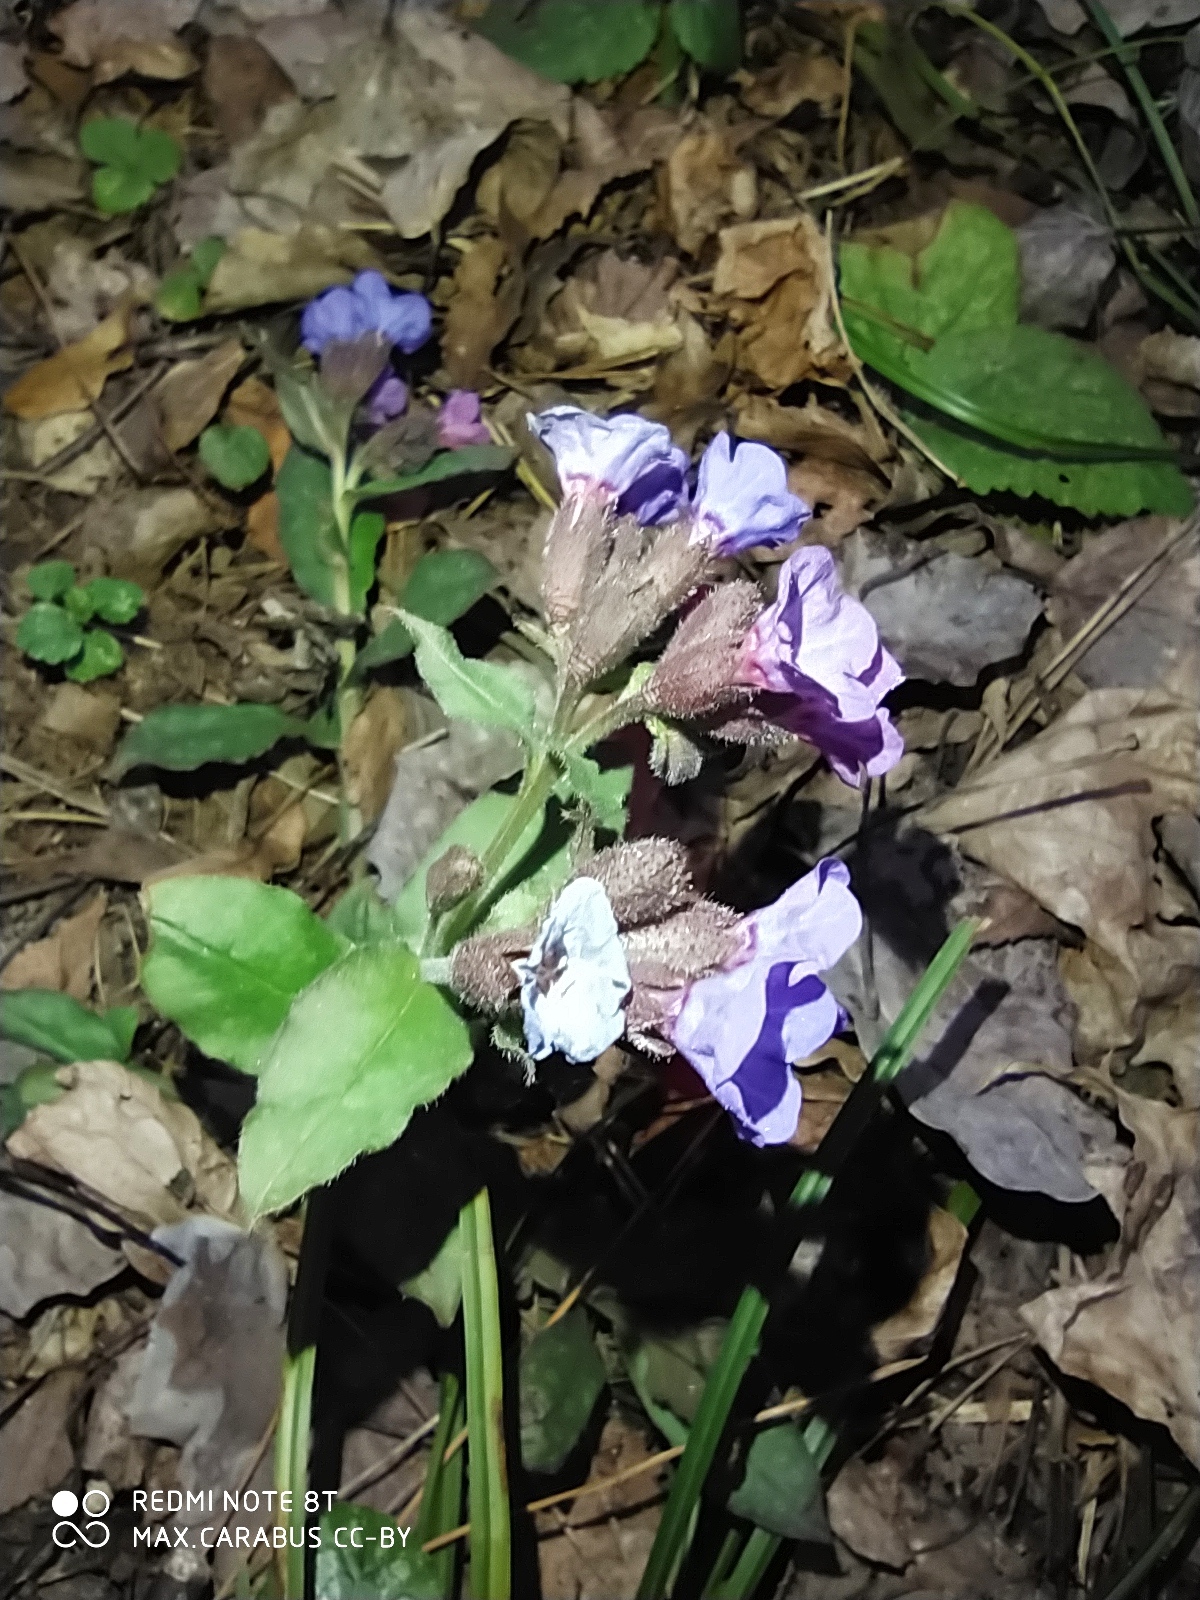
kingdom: Plantae
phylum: Tracheophyta
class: Magnoliopsida
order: Boraginales
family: Boraginaceae
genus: Pulmonaria
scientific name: Pulmonaria obscura
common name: Suffolk lungwort
